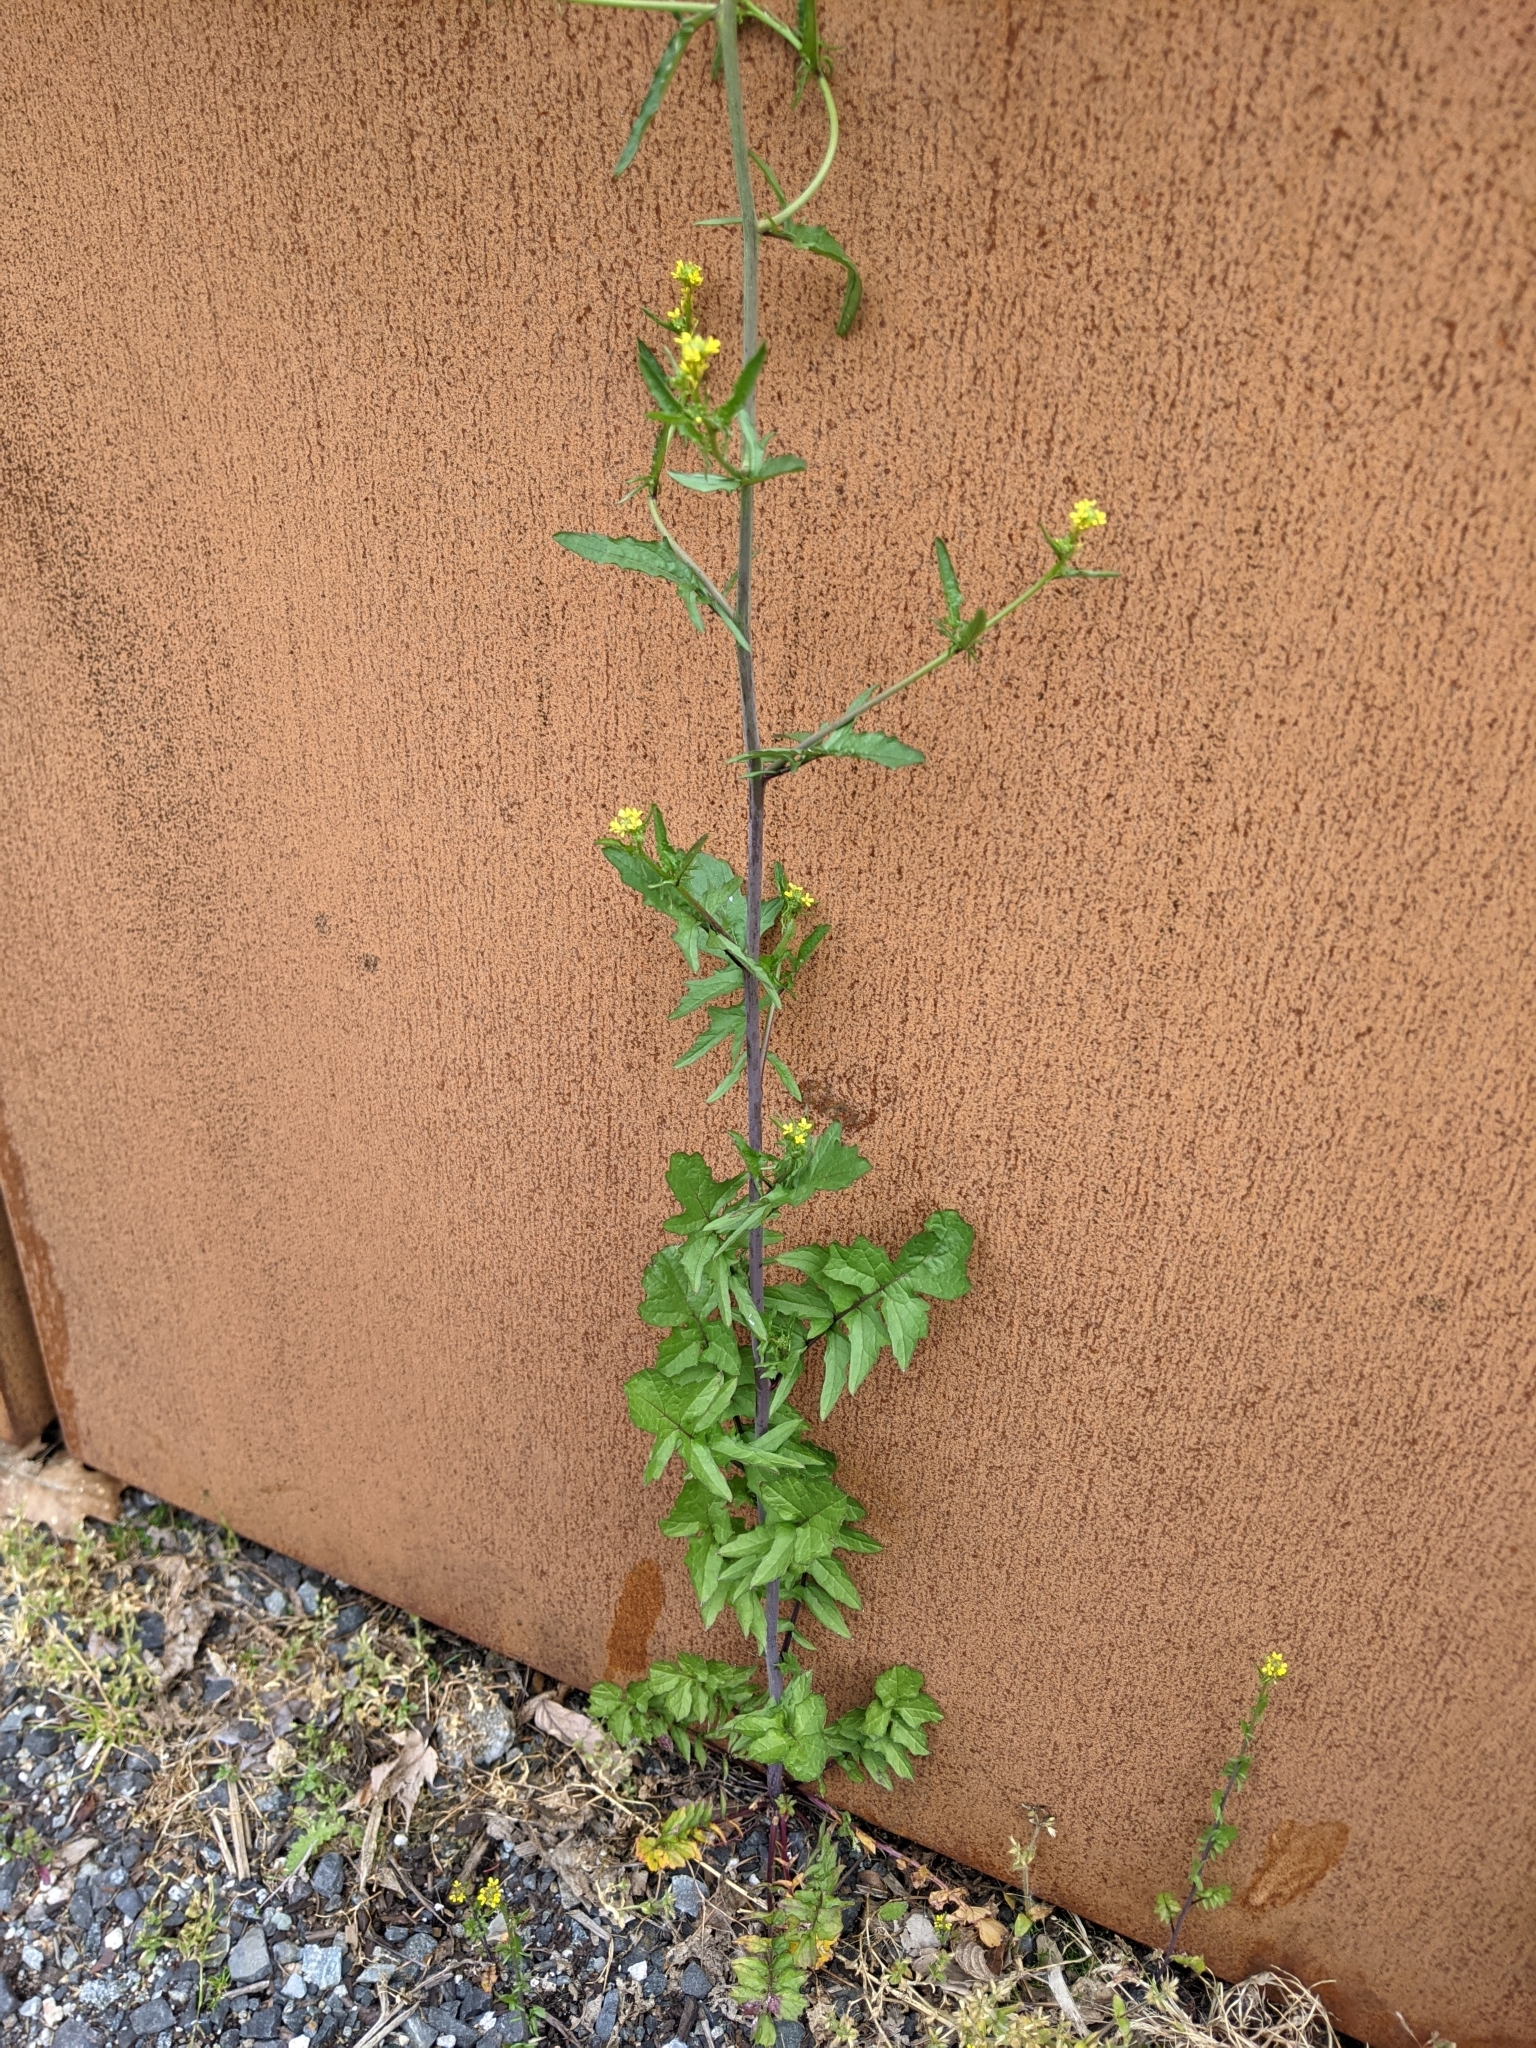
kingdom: Plantae
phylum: Tracheophyta
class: Magnoliopsida
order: Brassicales
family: Brassicaceae
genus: Sisymbrium
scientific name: Sisymbrium officinale
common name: Hedge mustard
